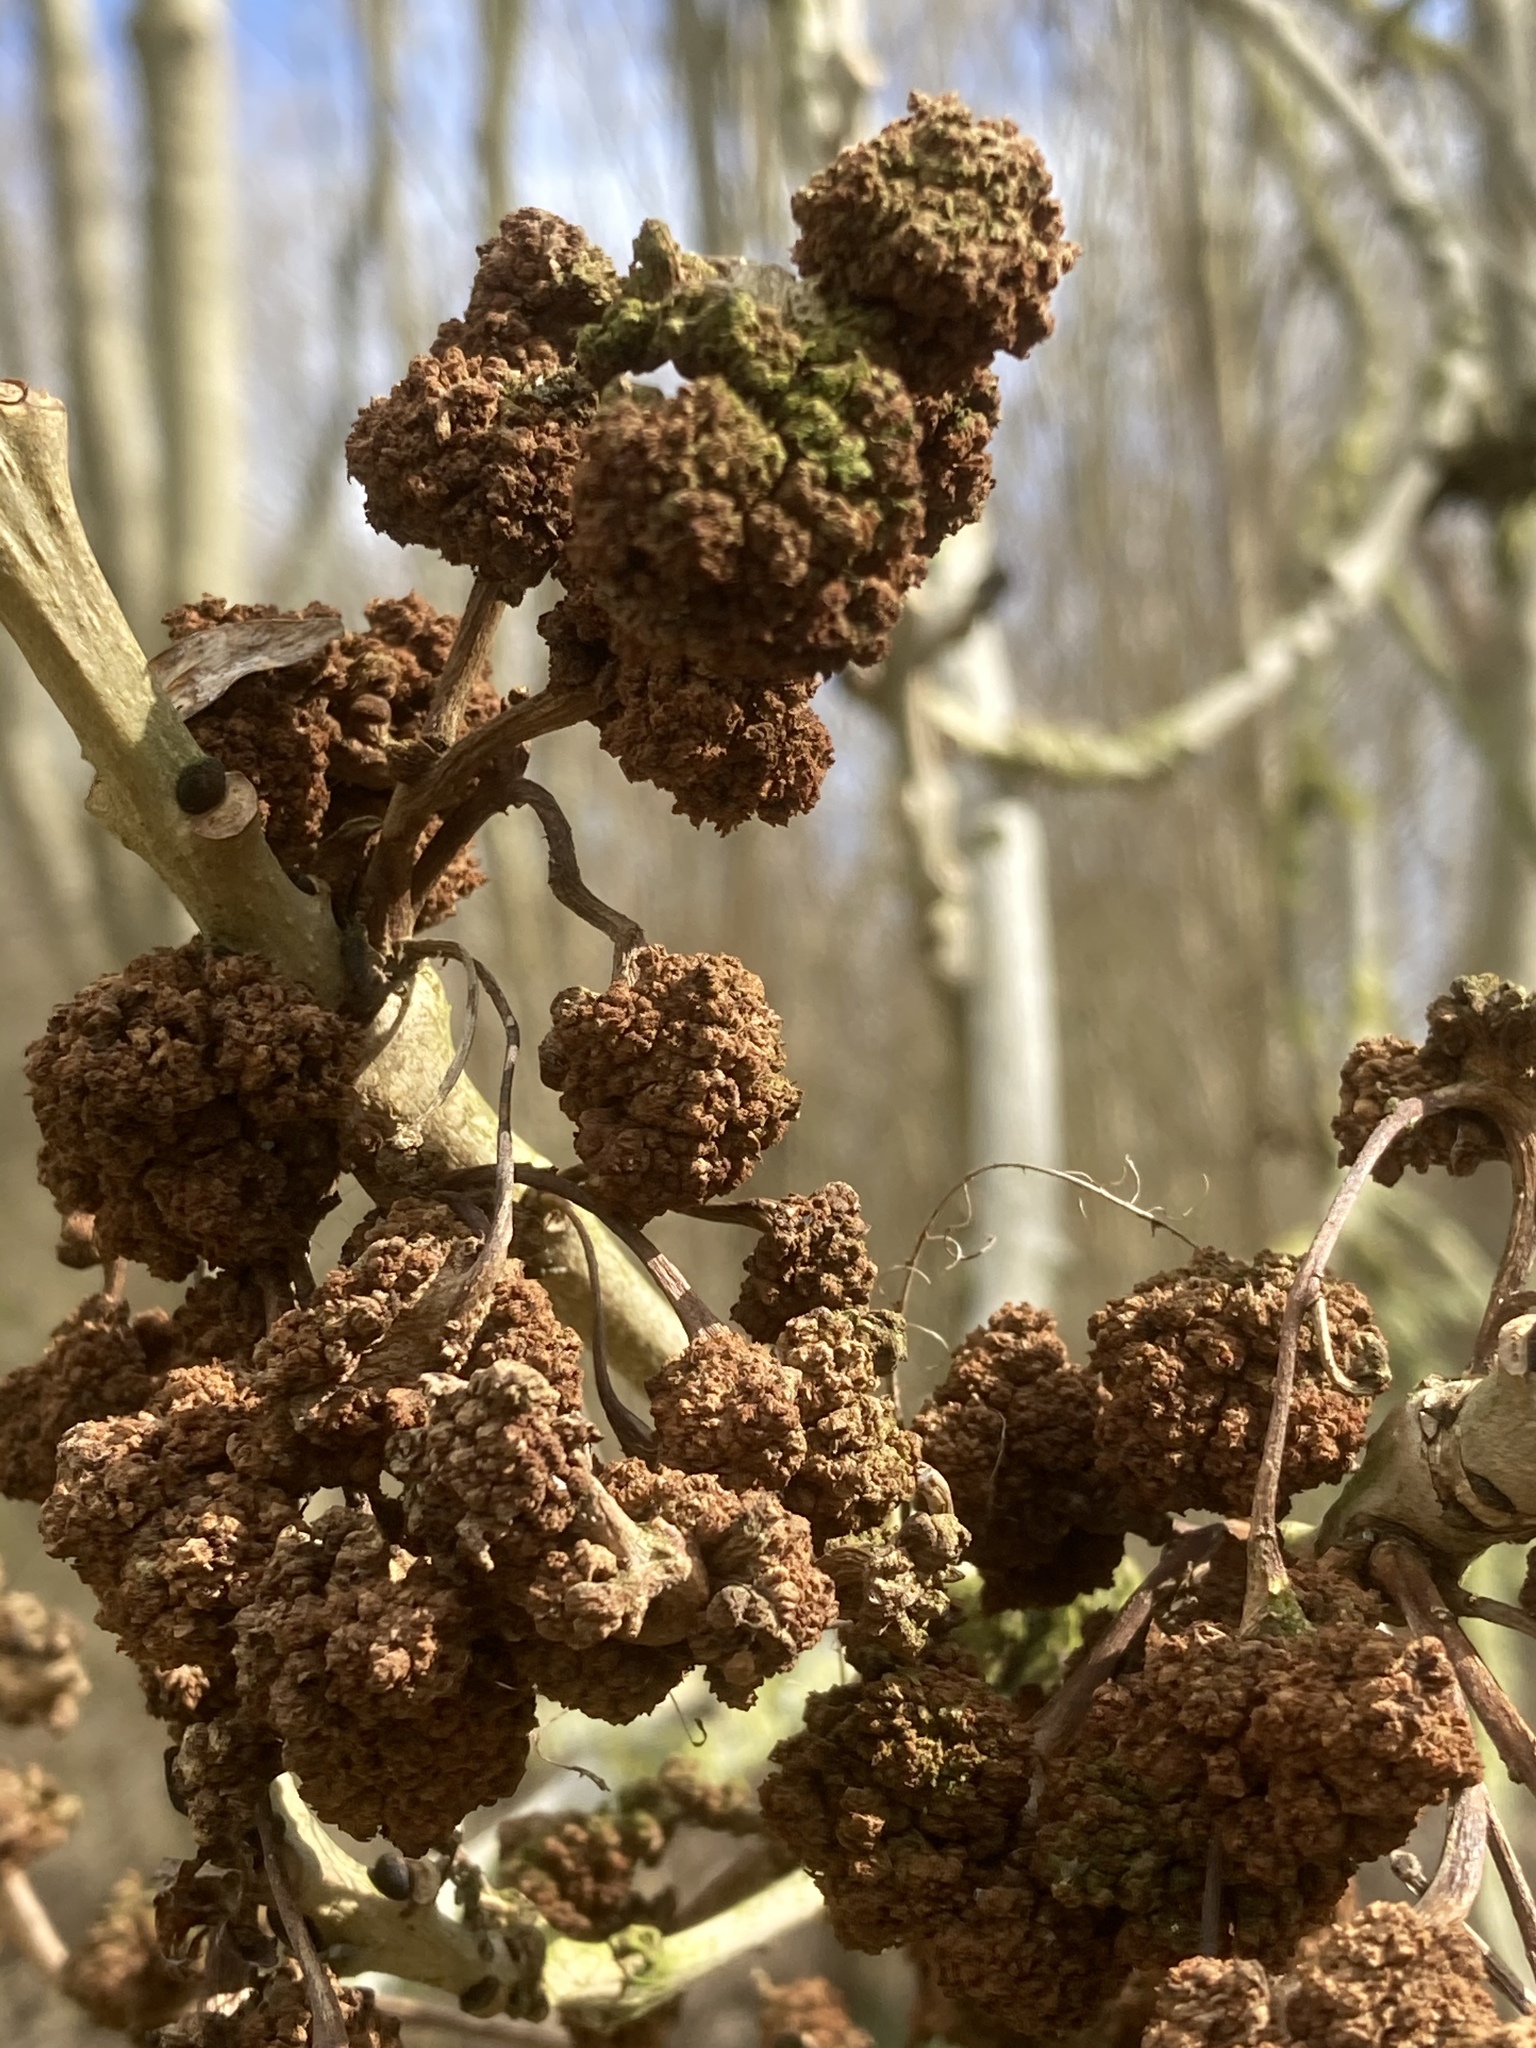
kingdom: Plantae
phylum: Tracheophyta
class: Magnoliopsida
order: Lamiales
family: Oleaceae
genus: Fraxinus
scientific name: Fraxinus excelsior
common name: European ash
